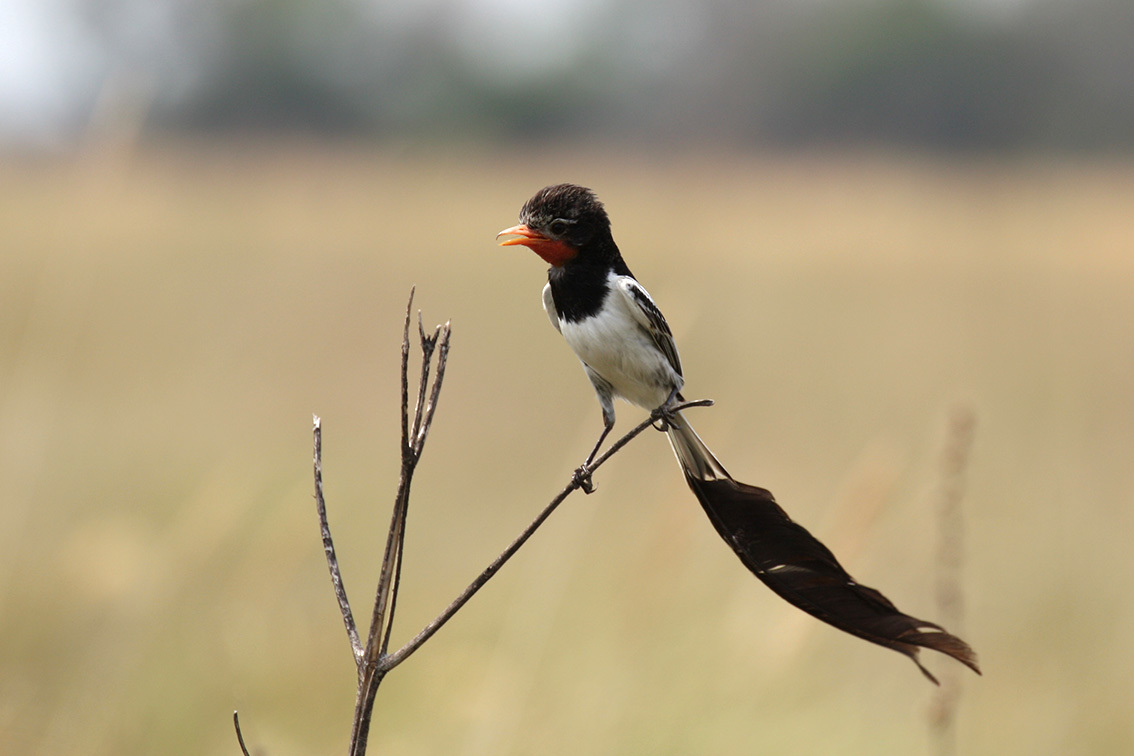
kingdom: Animalia
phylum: Chordata
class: Aves
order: Passeriformes
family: Tyrannidae
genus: Alectrurus
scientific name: Alectrurus risora
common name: Strange-tailed tyrant
